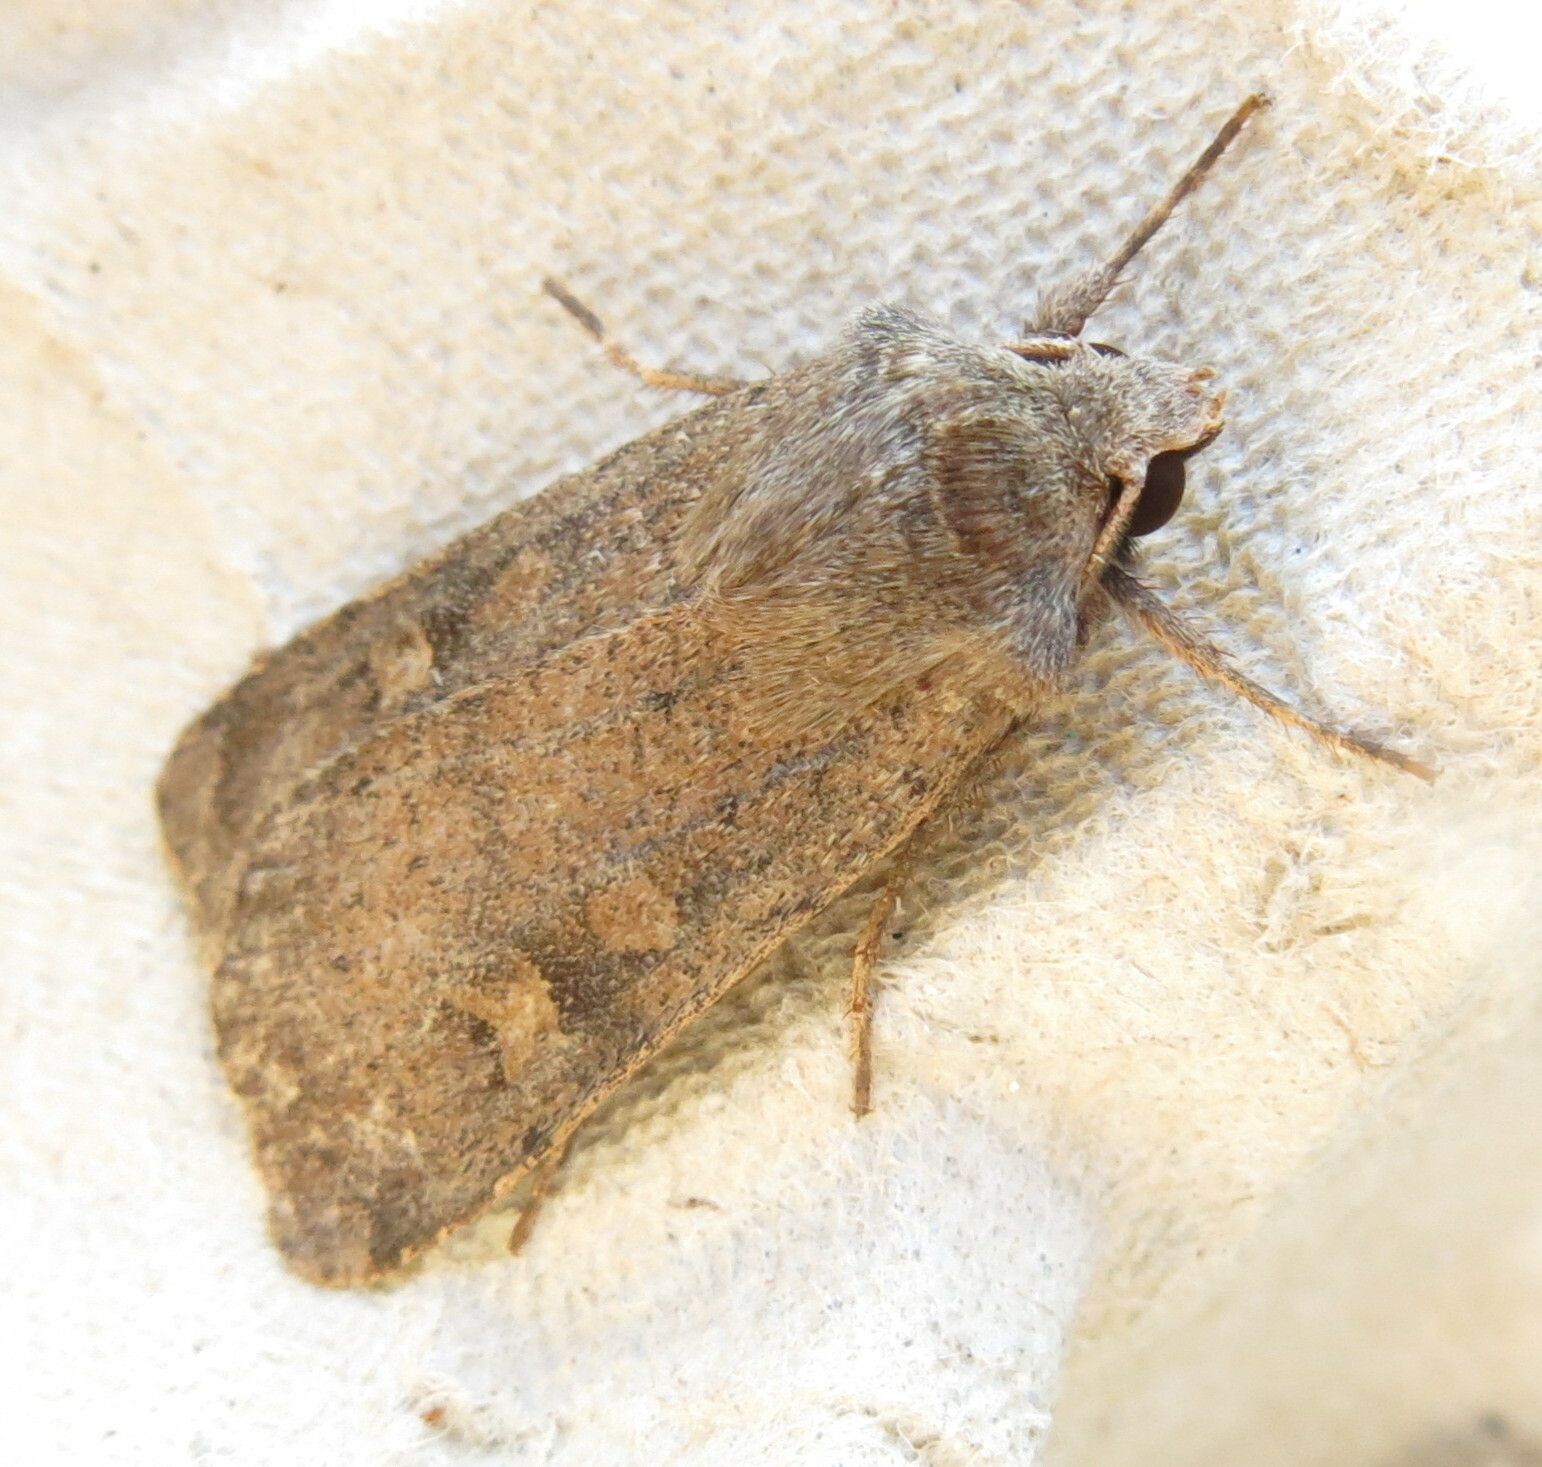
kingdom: Animalia
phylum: Arthropoda
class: Insecta
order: Lepidoptera
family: Noctuidae
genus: Xestia
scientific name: Xestia xanthographa
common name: Square-spot rustic
